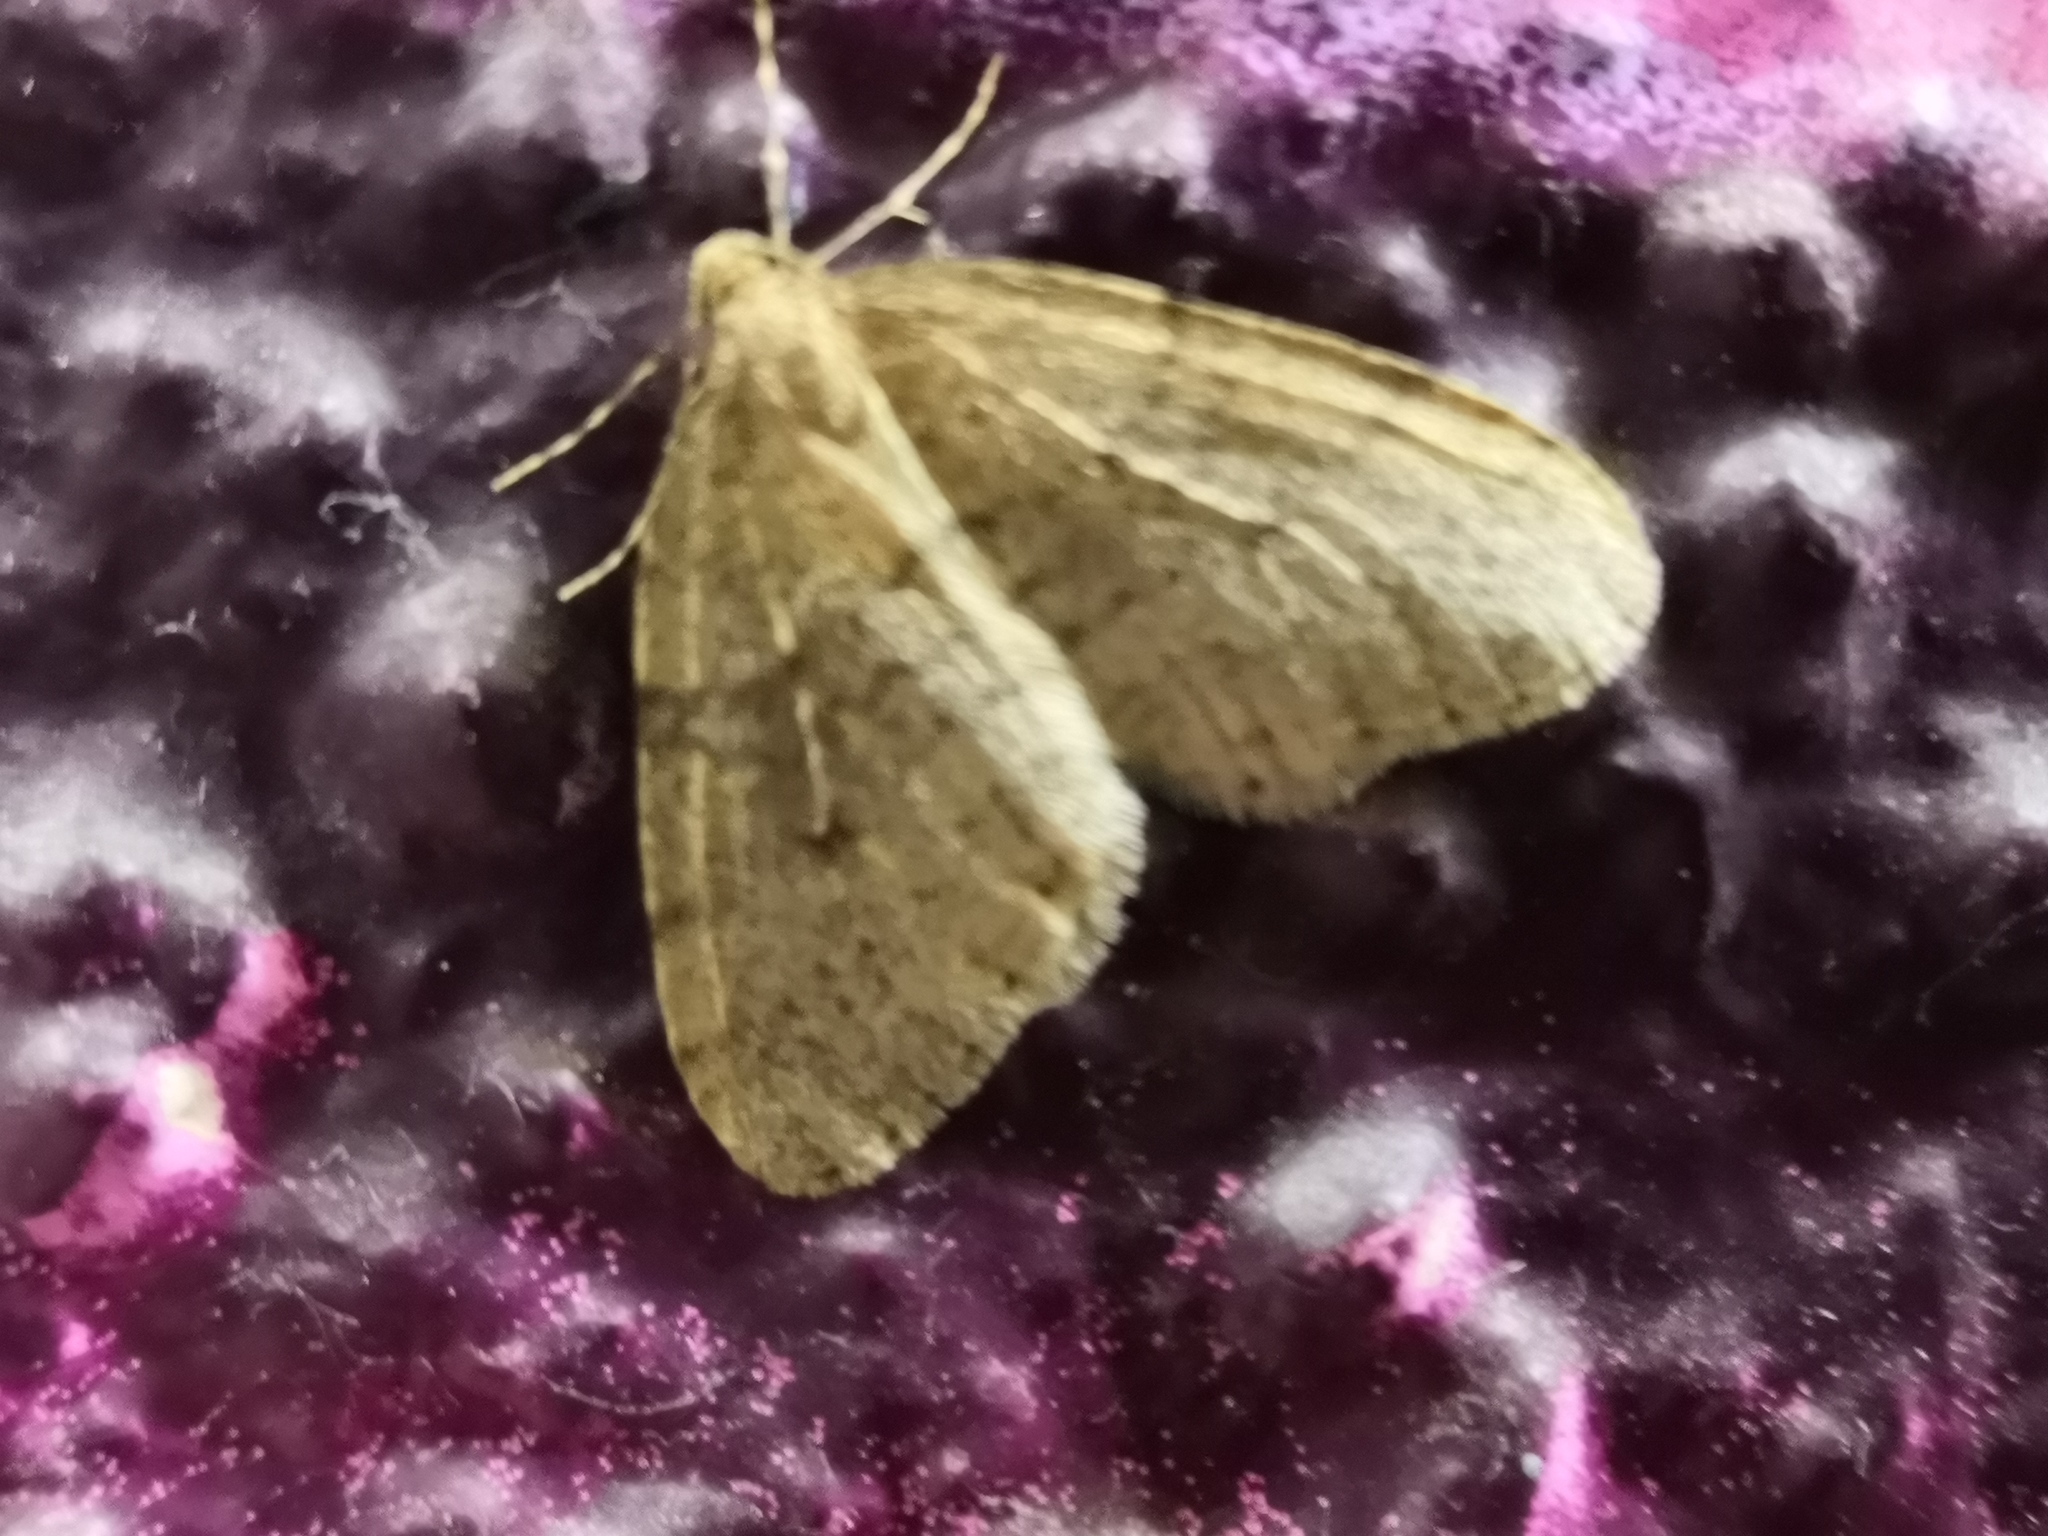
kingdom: Animalia
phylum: Arthropoda
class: Insecta
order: Lepidoptera
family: Geometridae
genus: Operophtera
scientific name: Operophtera brumata
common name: Winter moth
